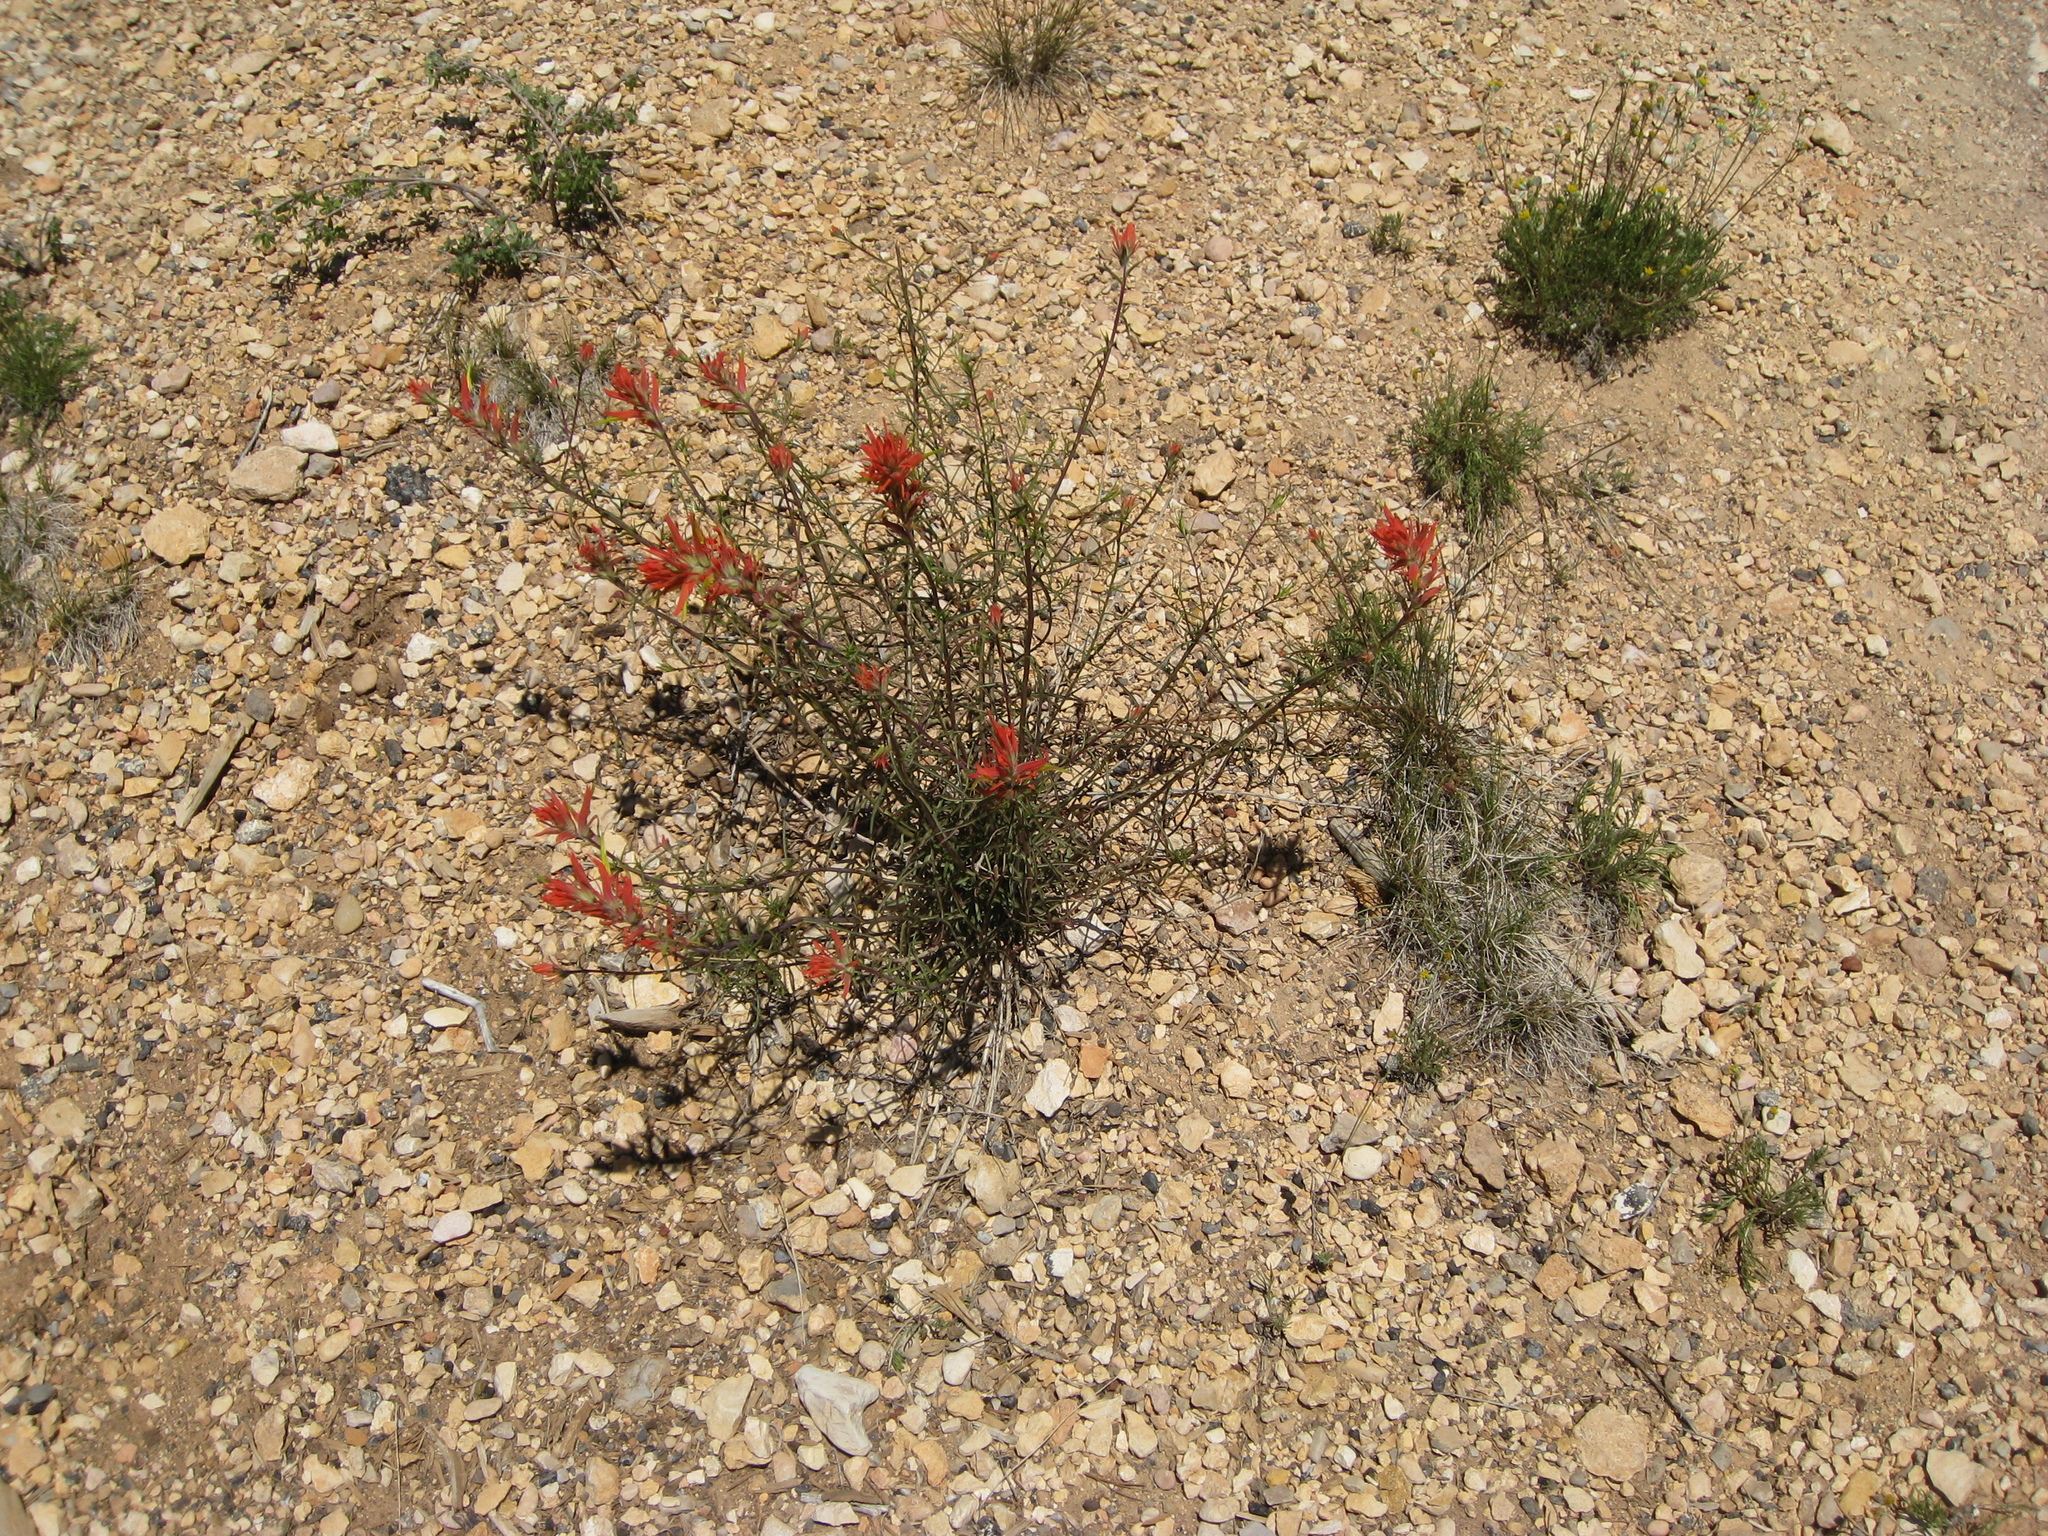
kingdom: Plantae
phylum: Tracheophyta
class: Magnoliopsida
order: Lamiales
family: Orobanchaceae
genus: Castilleja
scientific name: Castilleja linariifolia
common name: Wyoming paintbrush
